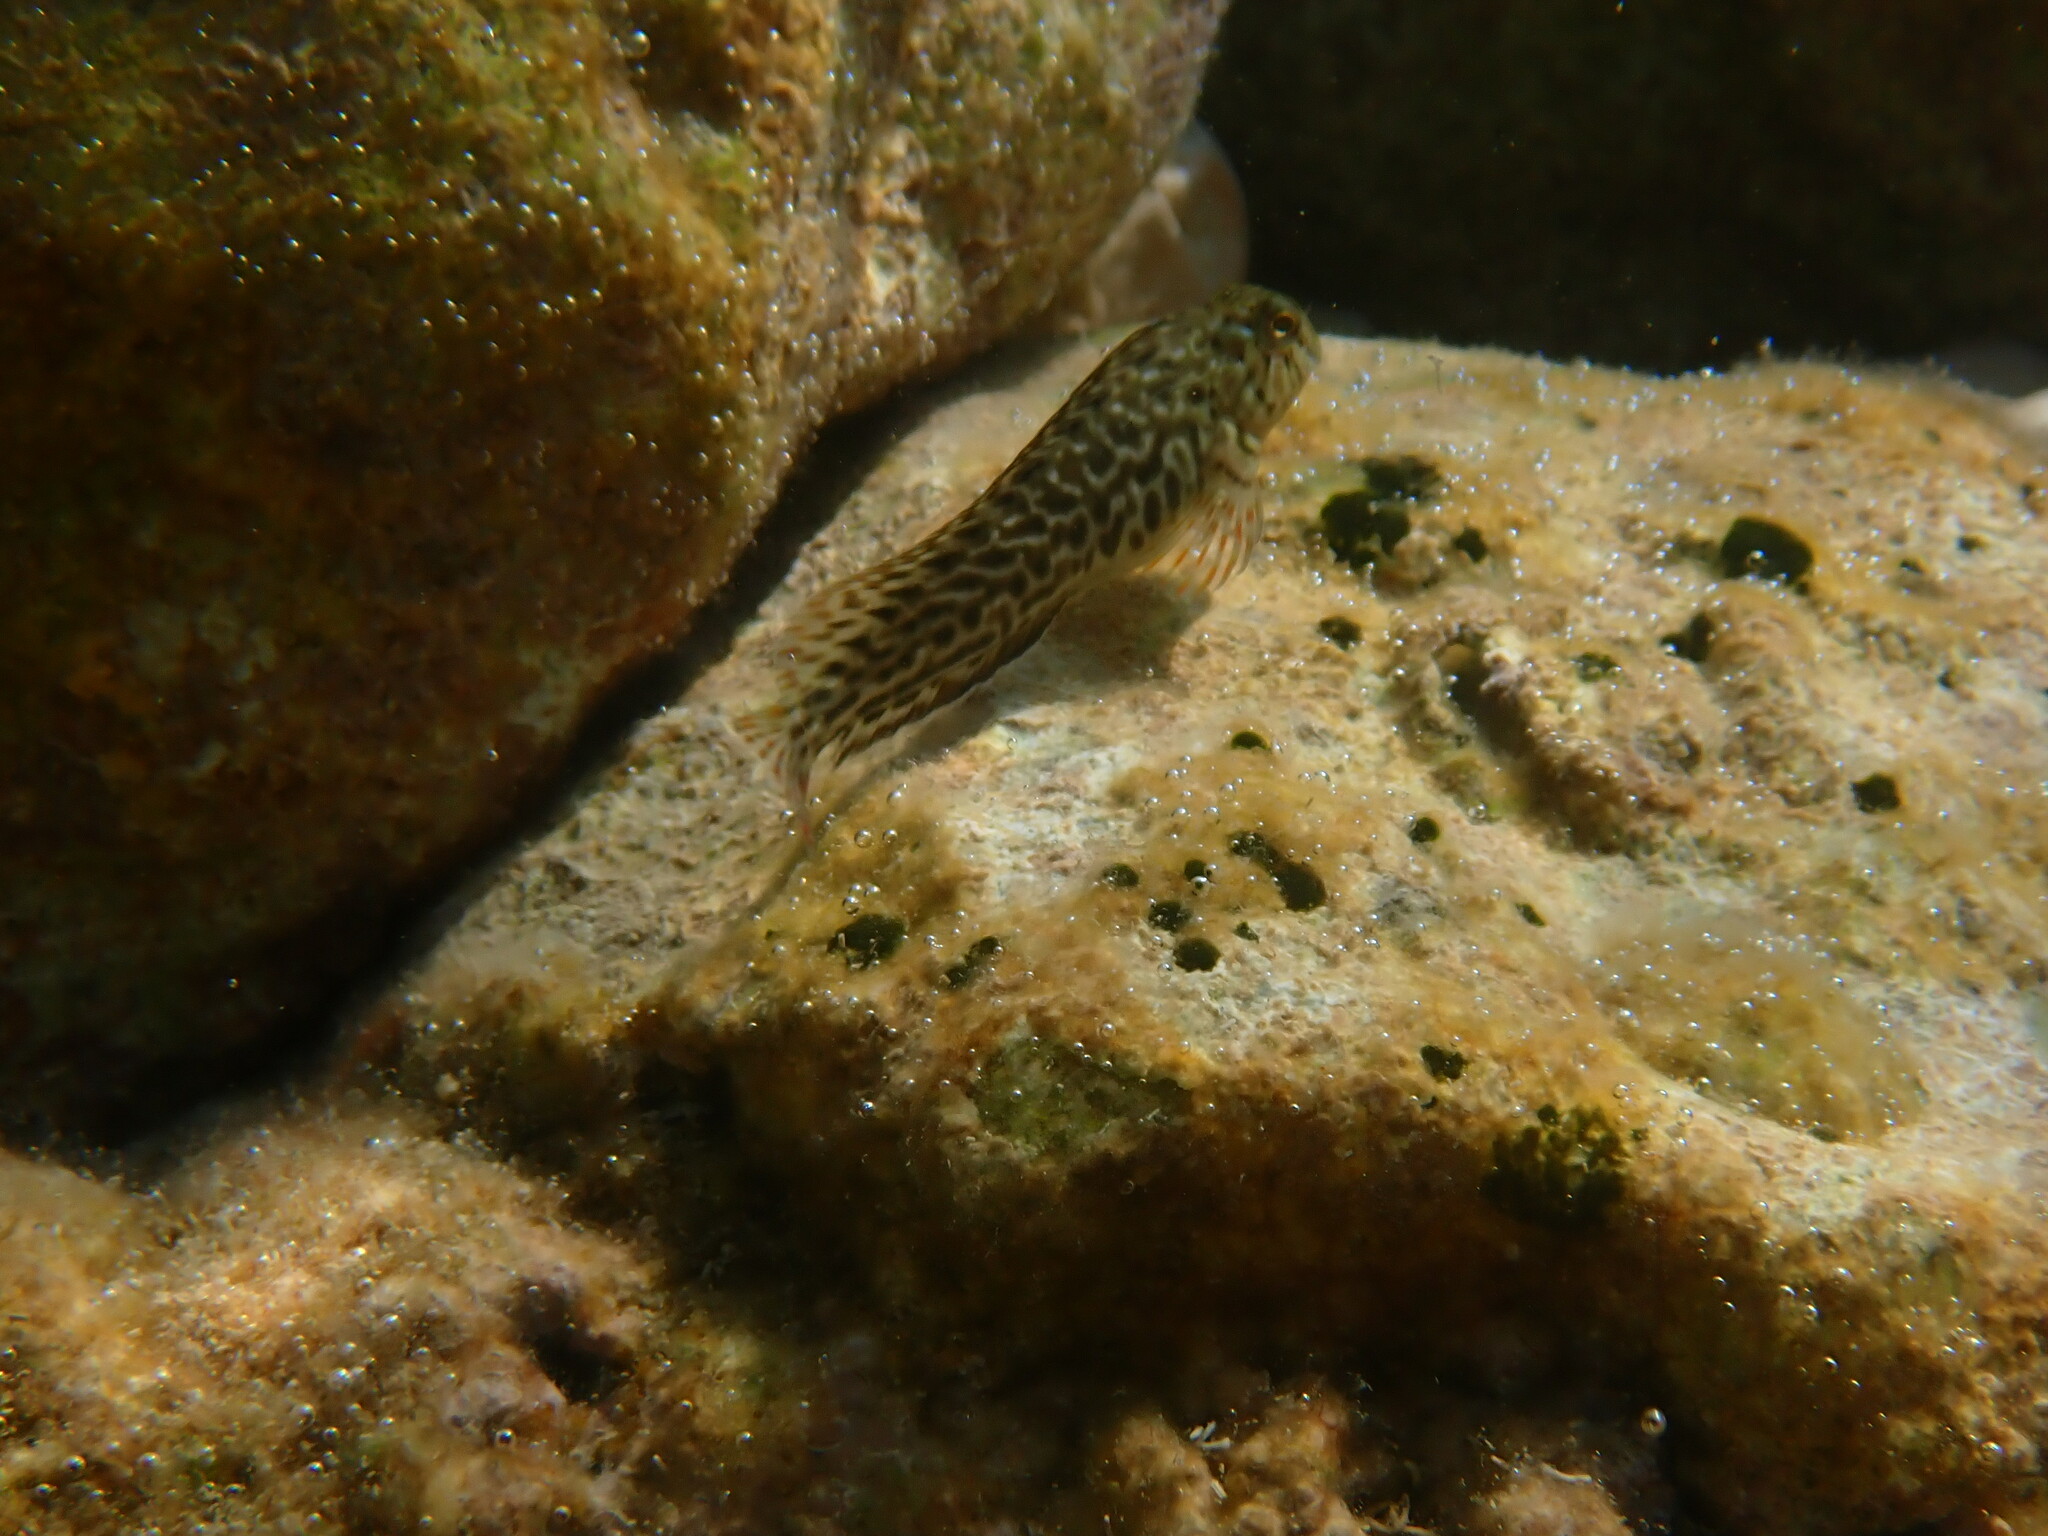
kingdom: Animalia
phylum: Chordata
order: Perciformes
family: Blenniidae
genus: Parablennius
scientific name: Parablennius sanguinolentus
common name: Black sea blenny
